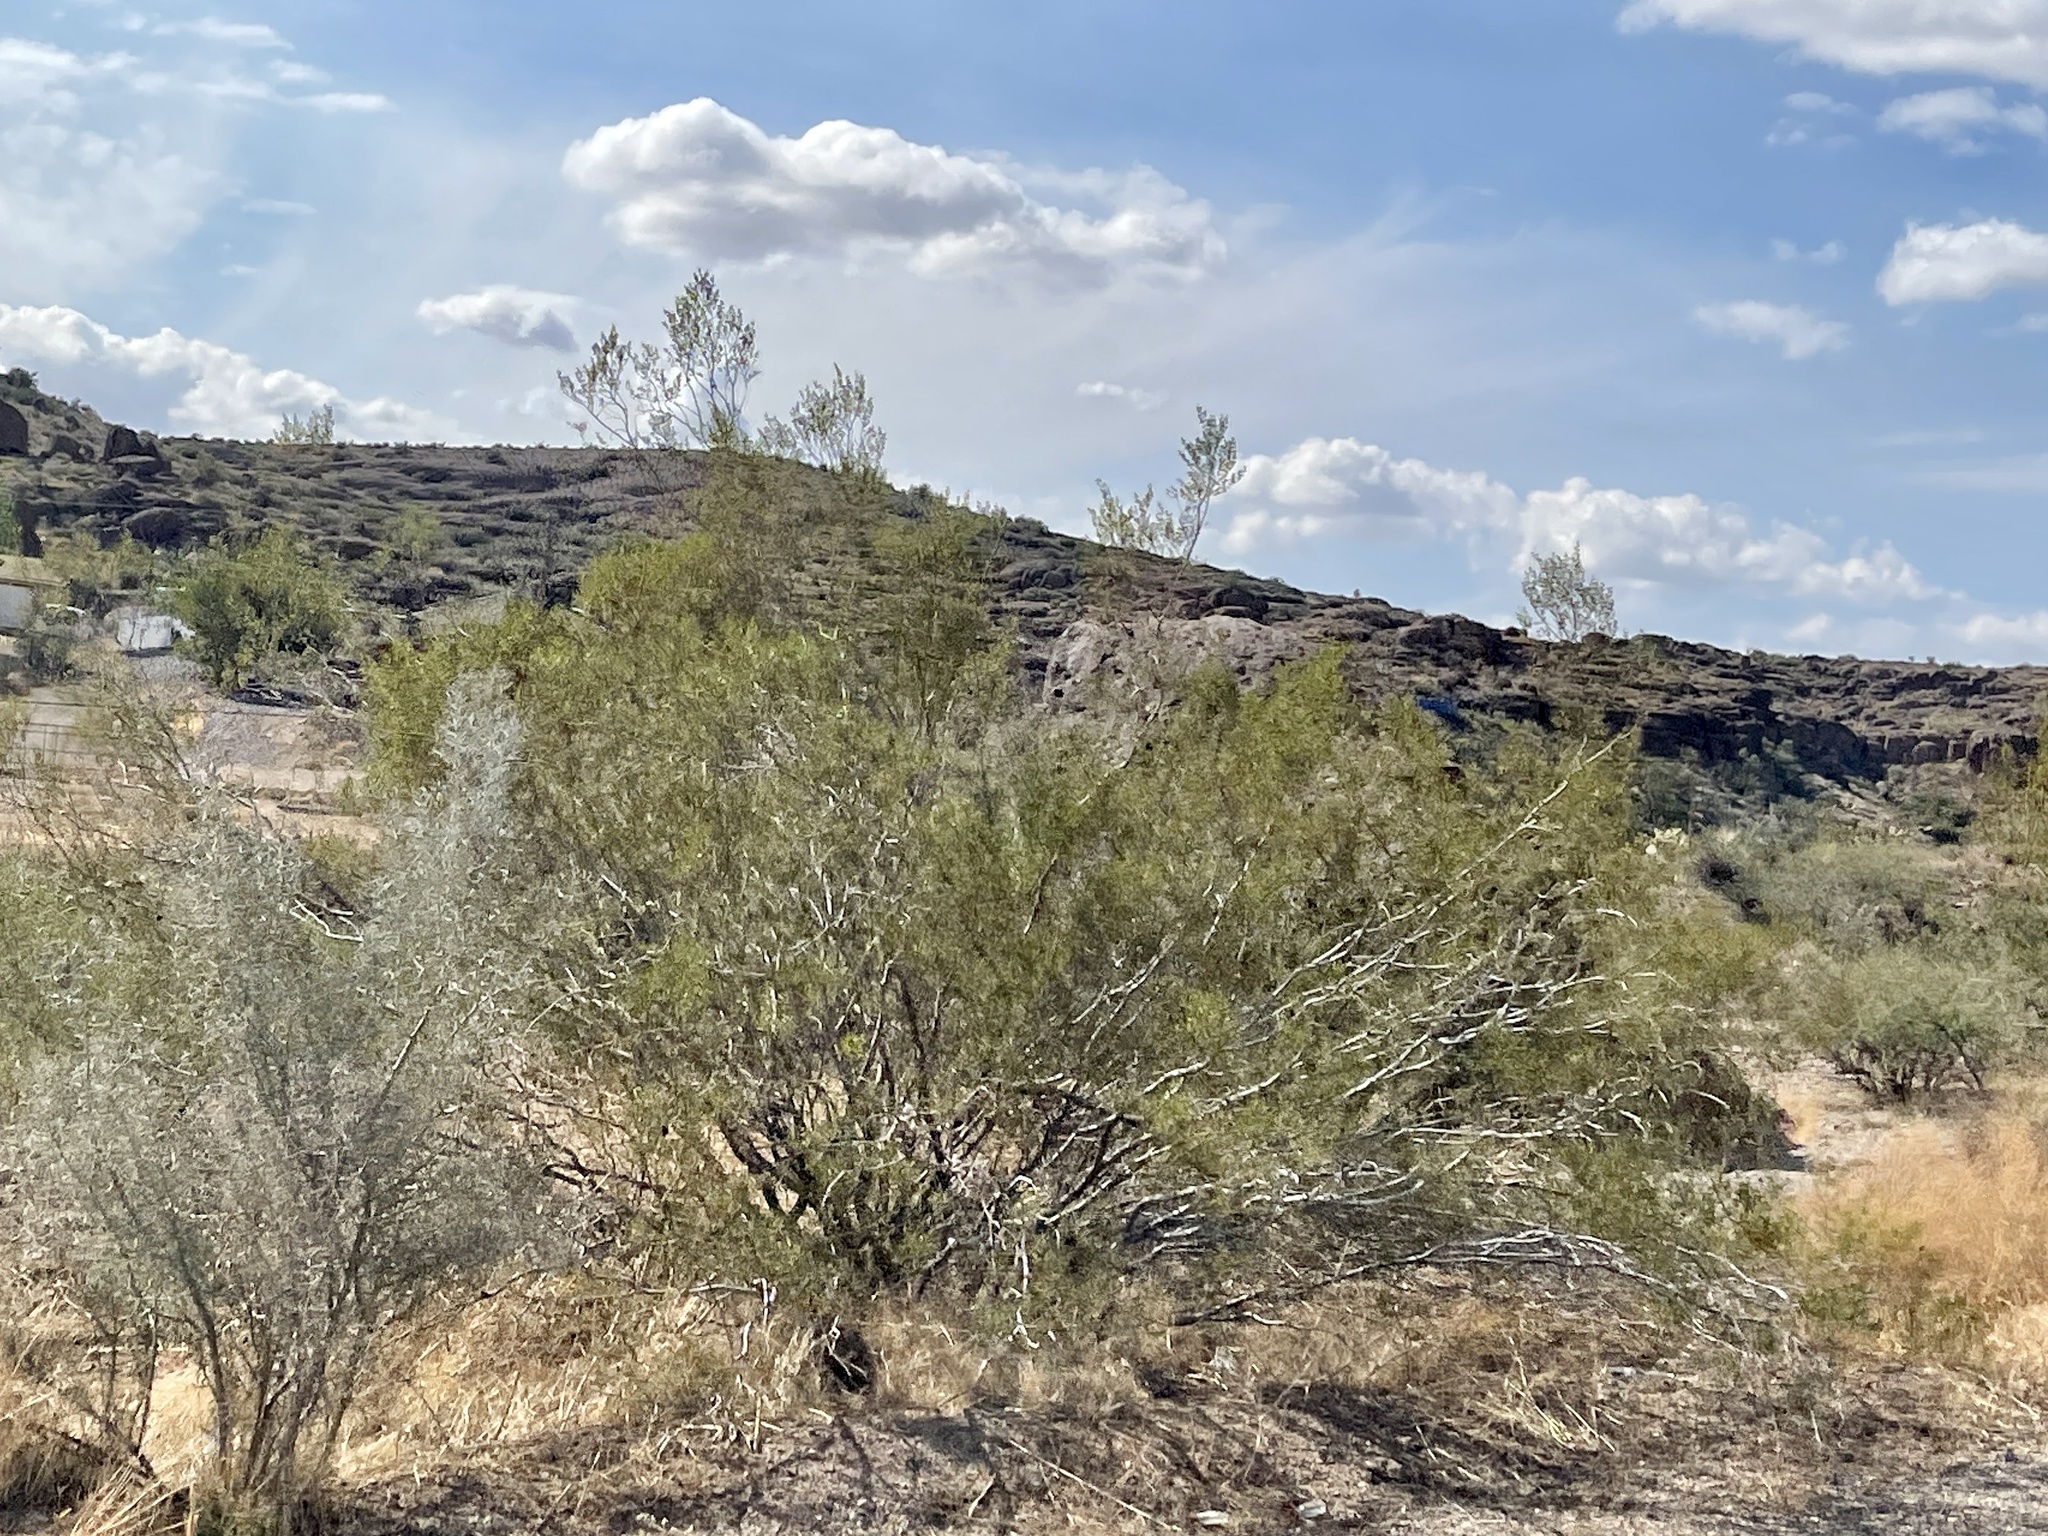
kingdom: Plantae
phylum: Tracheophyta
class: Magnoliopsida
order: Zygophyllales
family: Zygophyllaceae
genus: Larrea
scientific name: Larrea tridentata
